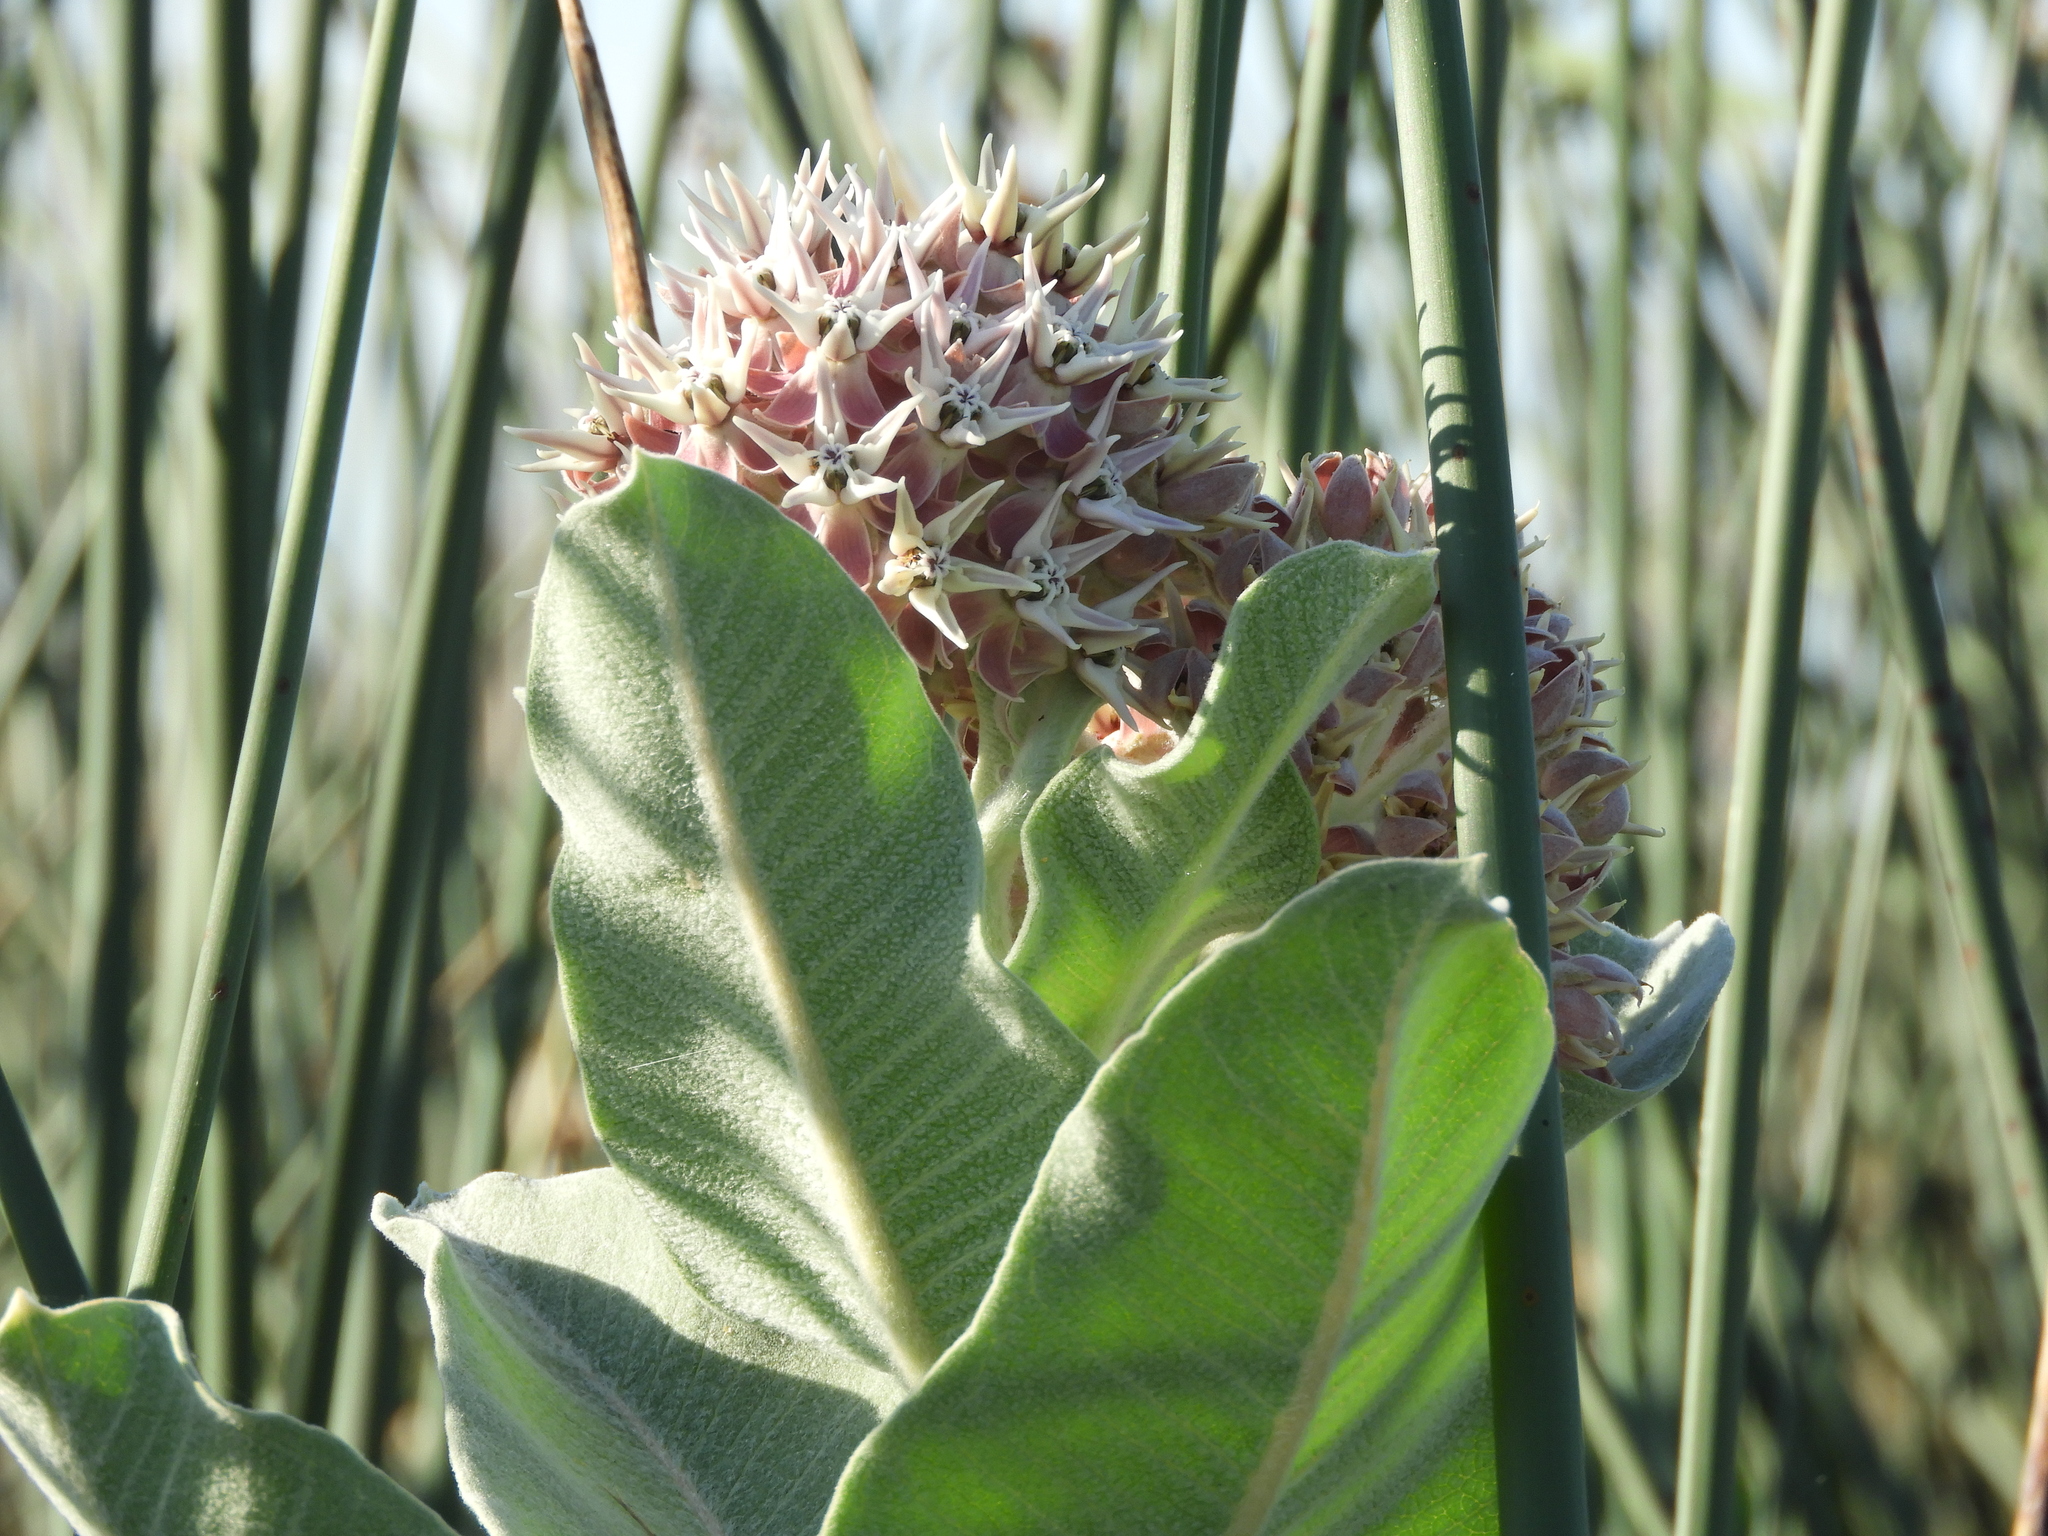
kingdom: Plantae
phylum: Tracheophyta
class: Magnoliopsida
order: Gentianales
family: Apocynaceae
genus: Asclepias
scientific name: Asclepias speciosa
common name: Showy milkweed
